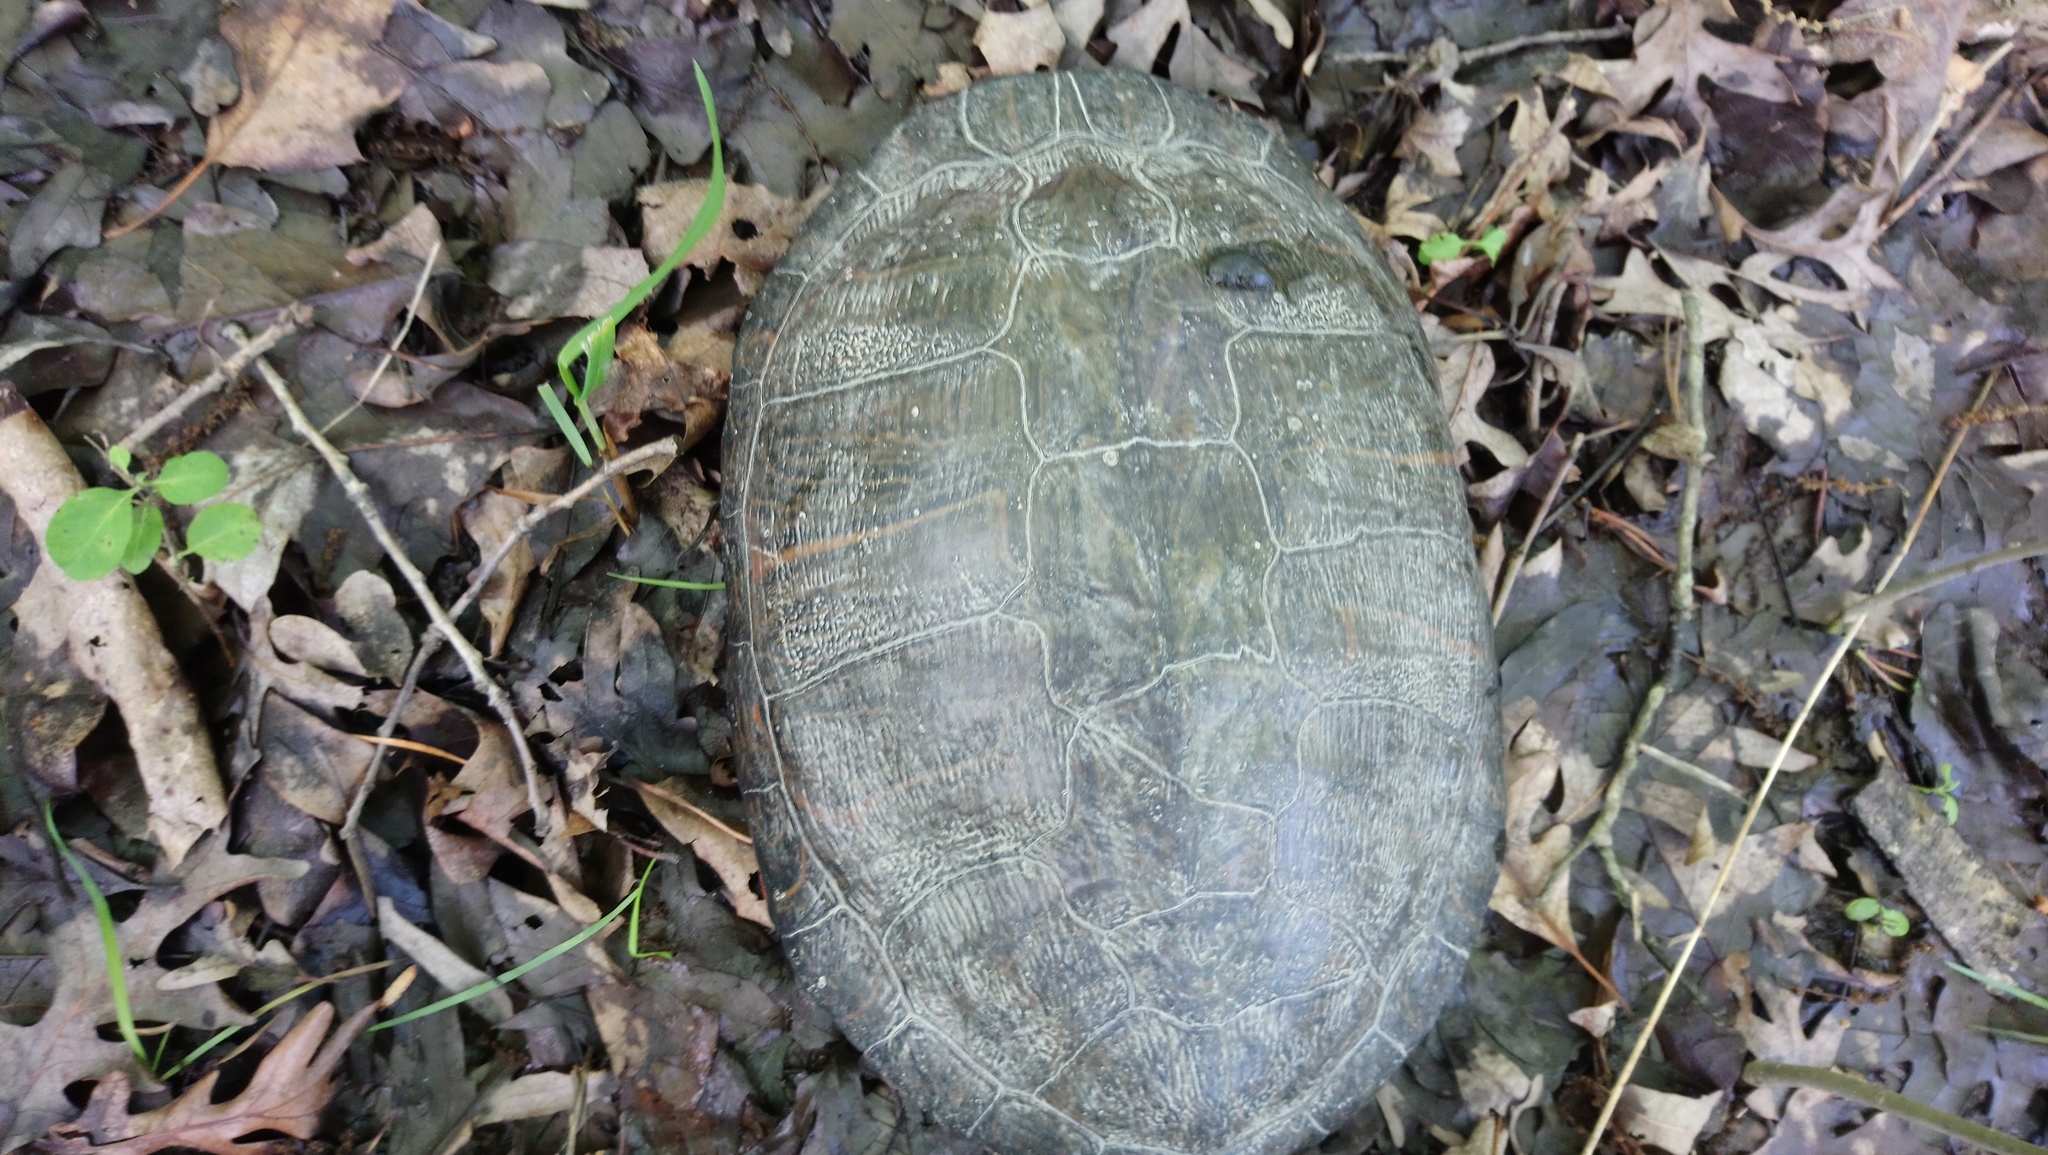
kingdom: Animalia
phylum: Chordata
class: Testudines
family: Emydidae
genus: Pseudemys
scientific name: Pseudemys rubriventris
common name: American red-bellied turtle
